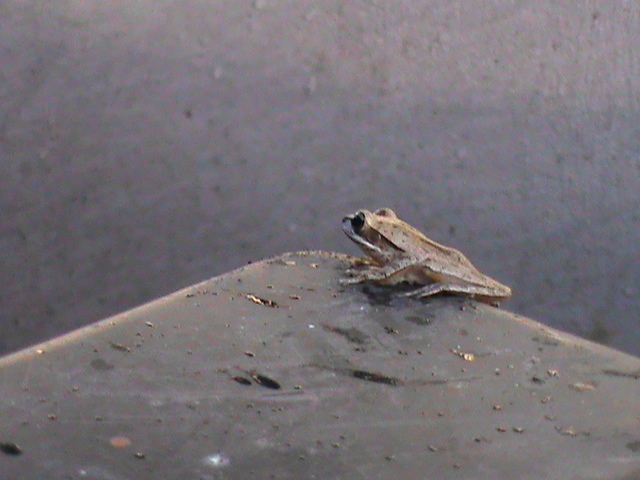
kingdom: Animalia
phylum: Chordata
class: Amphibia
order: Anura
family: Rhacophoridae
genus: Polypedates
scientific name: Polypedates maculatus
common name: Himalayan tree frog
